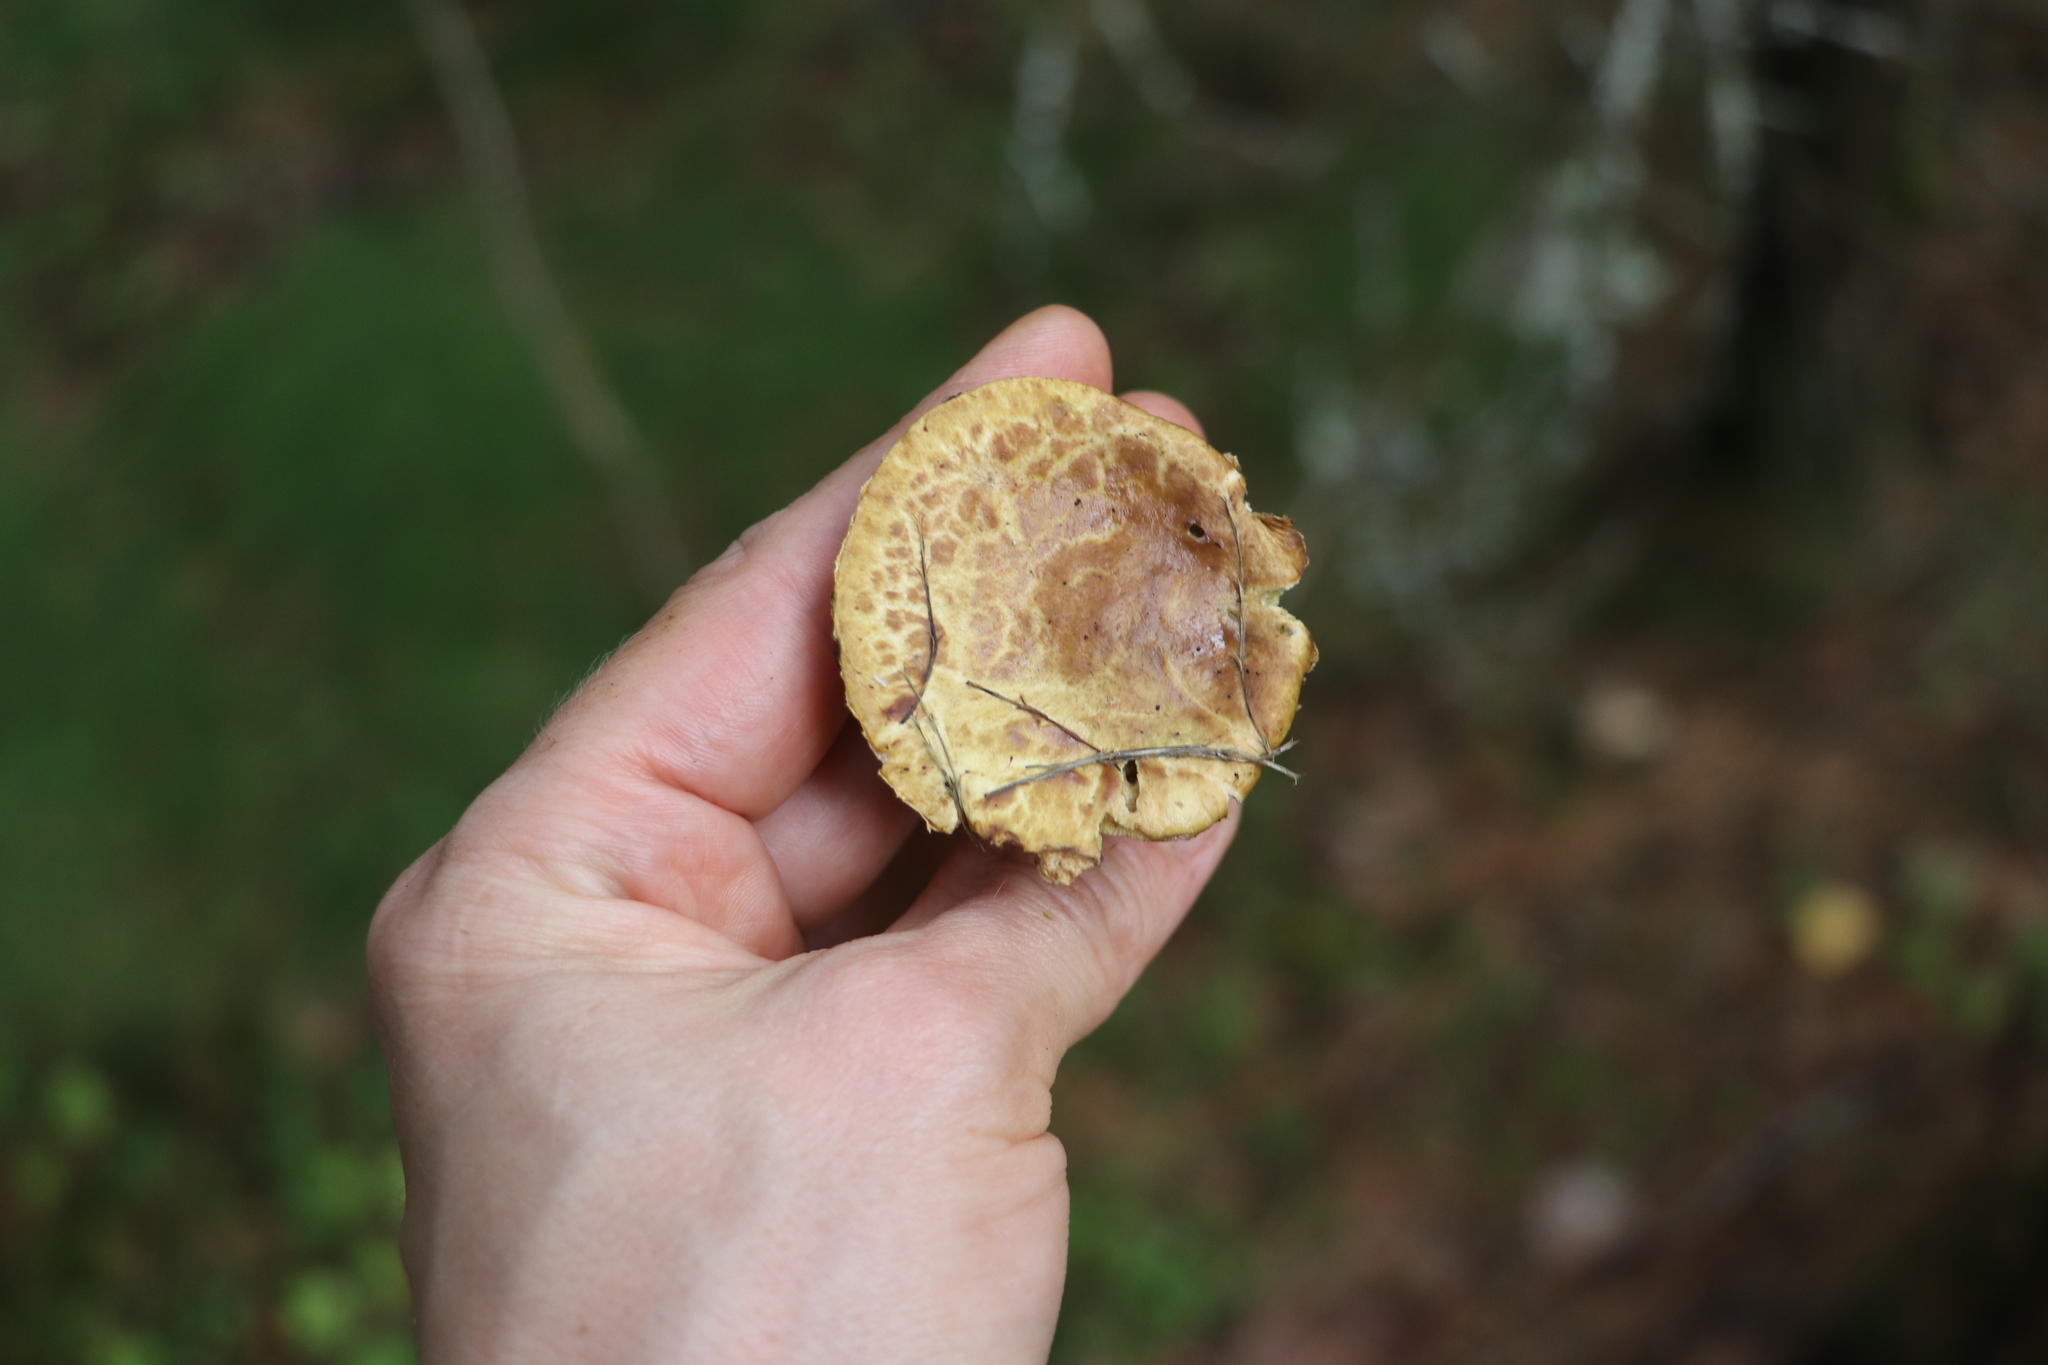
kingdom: Fungi
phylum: Basidiomycota
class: Agaricomycetes
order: Boletales
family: Suillaceae
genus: Suillus
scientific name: Suillus acidus
